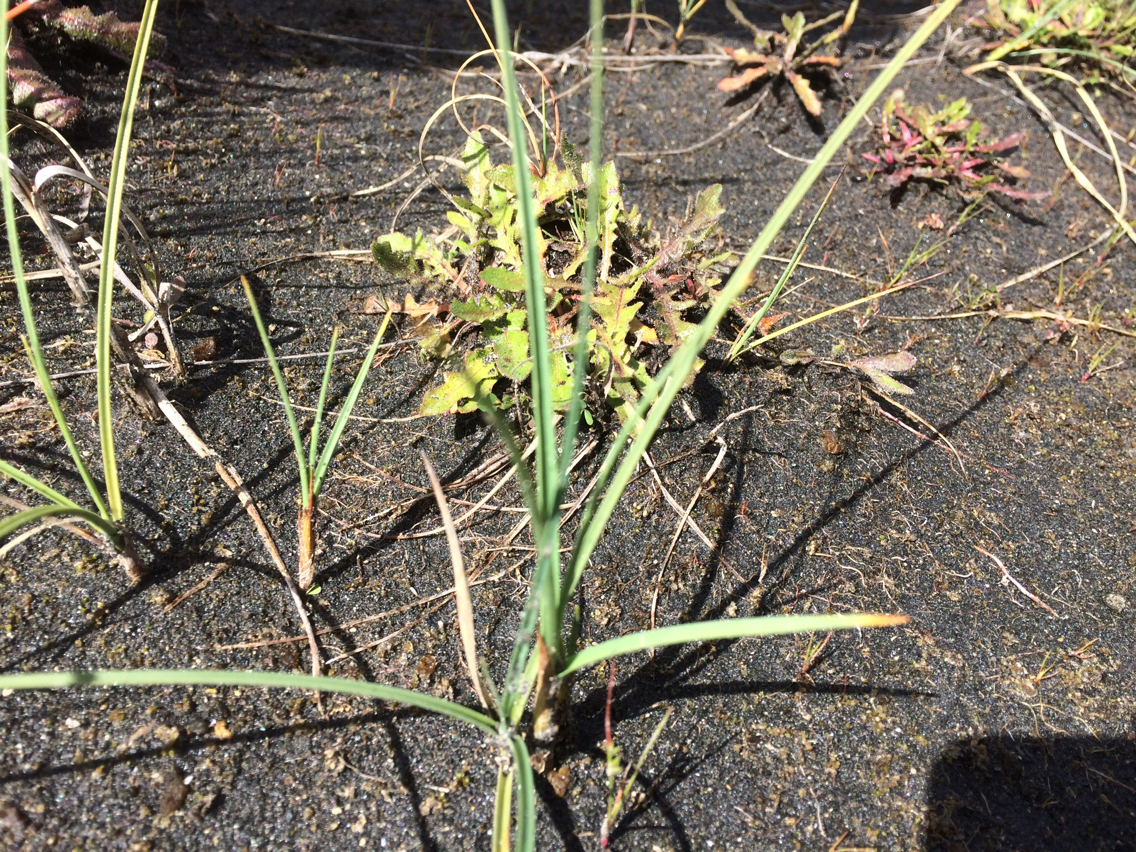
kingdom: Plantae
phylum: Tracheophyta
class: Liliopsida
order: Poales
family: Cyperaceae
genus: Carex
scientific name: Carex pumila
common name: Dwarf sedge
